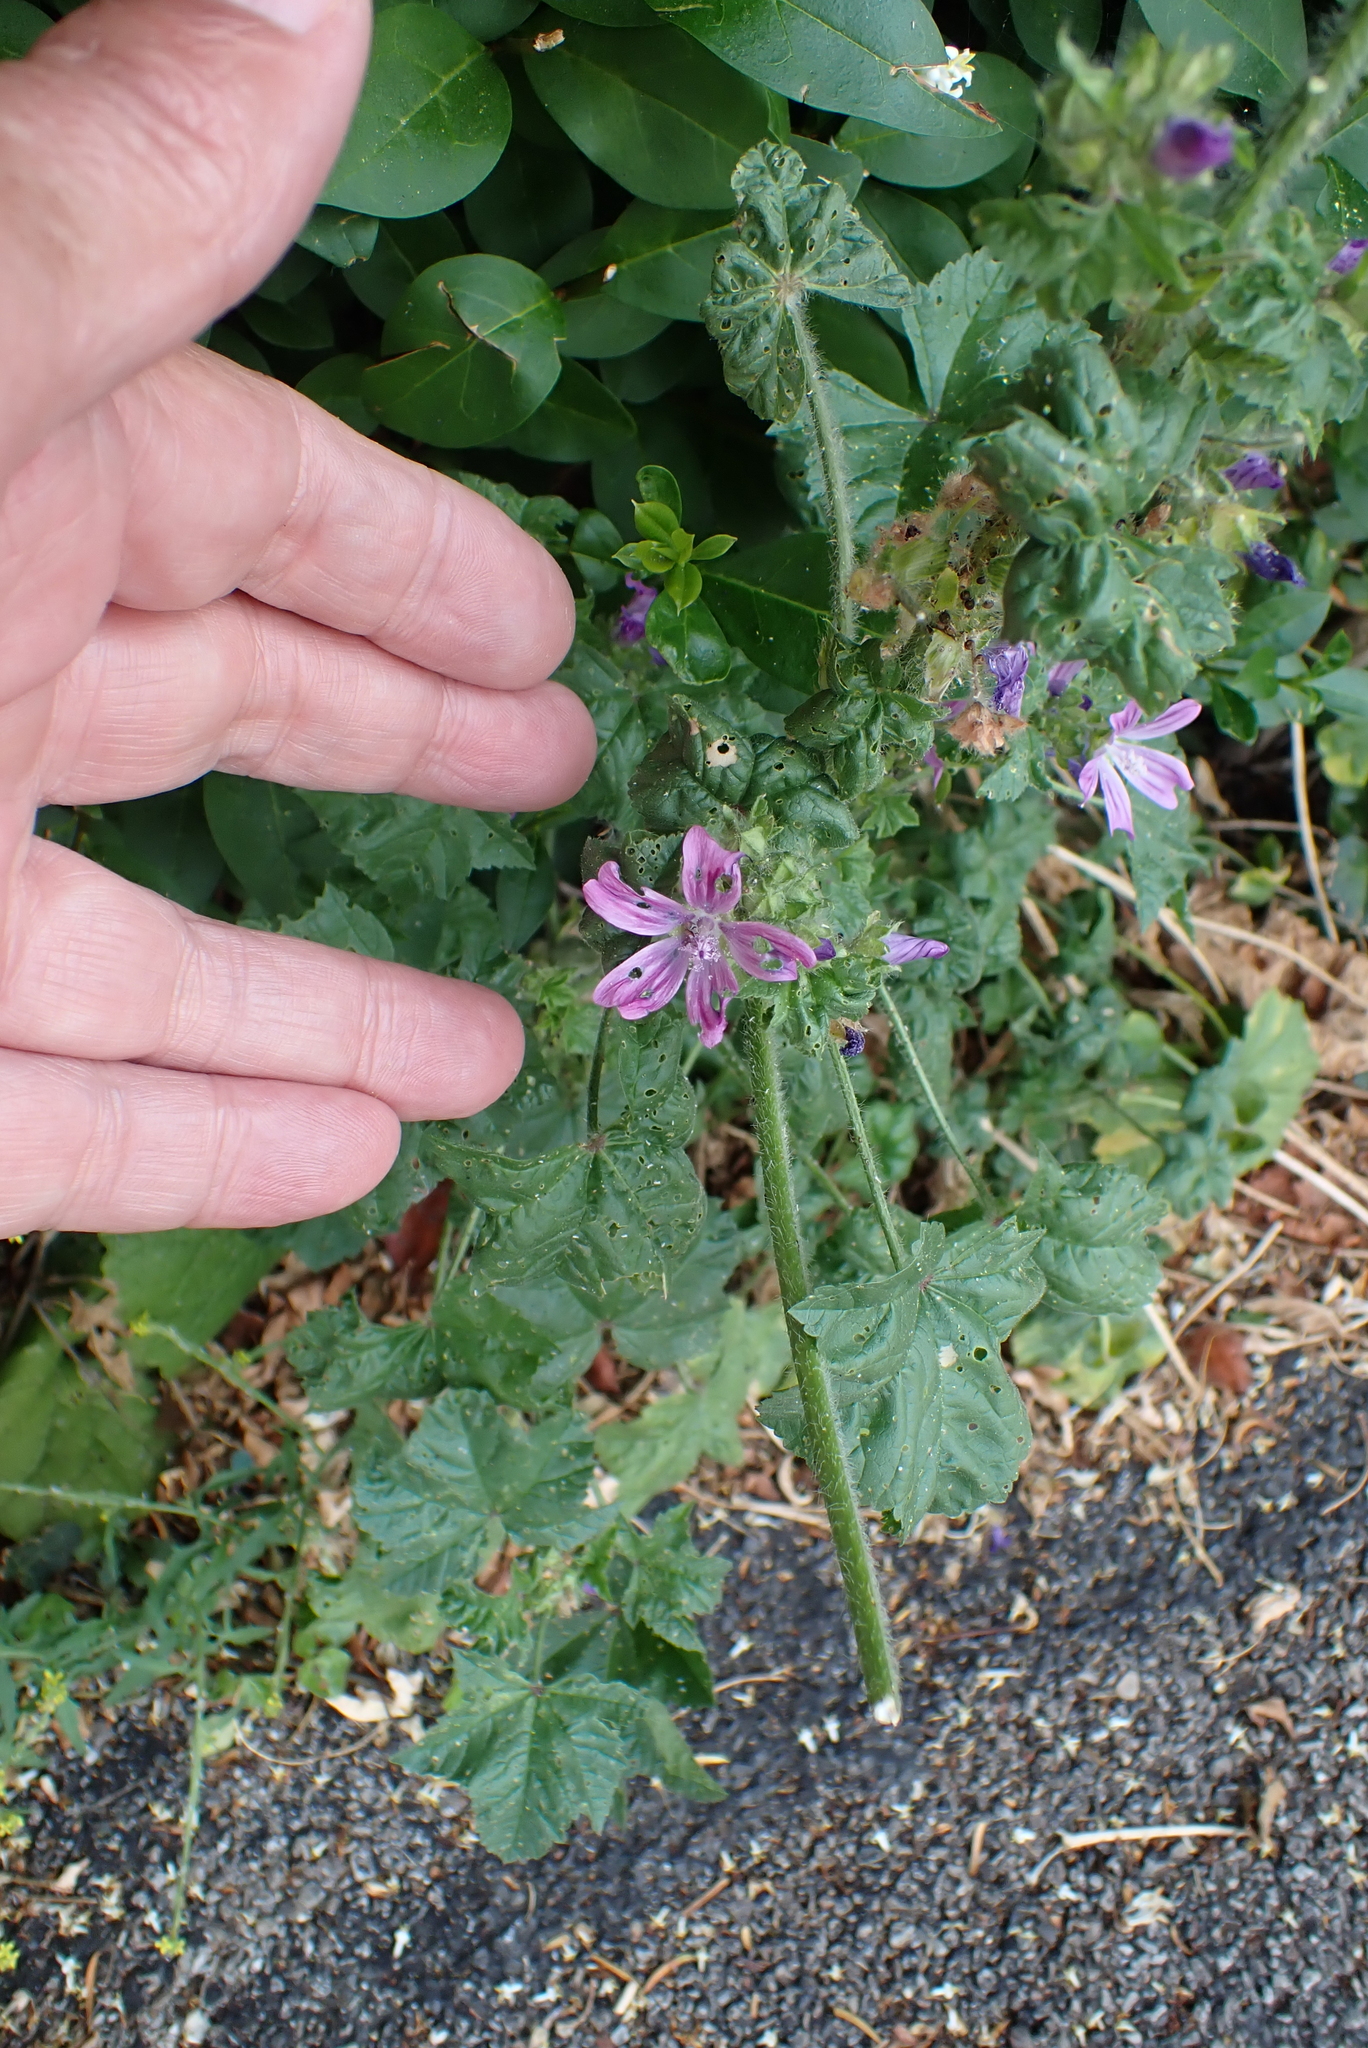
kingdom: Plantae
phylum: Tracheophyta
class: Magnoliopsida
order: Malvales
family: Malvaceae
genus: Malva
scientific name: Malva sylvestris
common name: Common mallow
